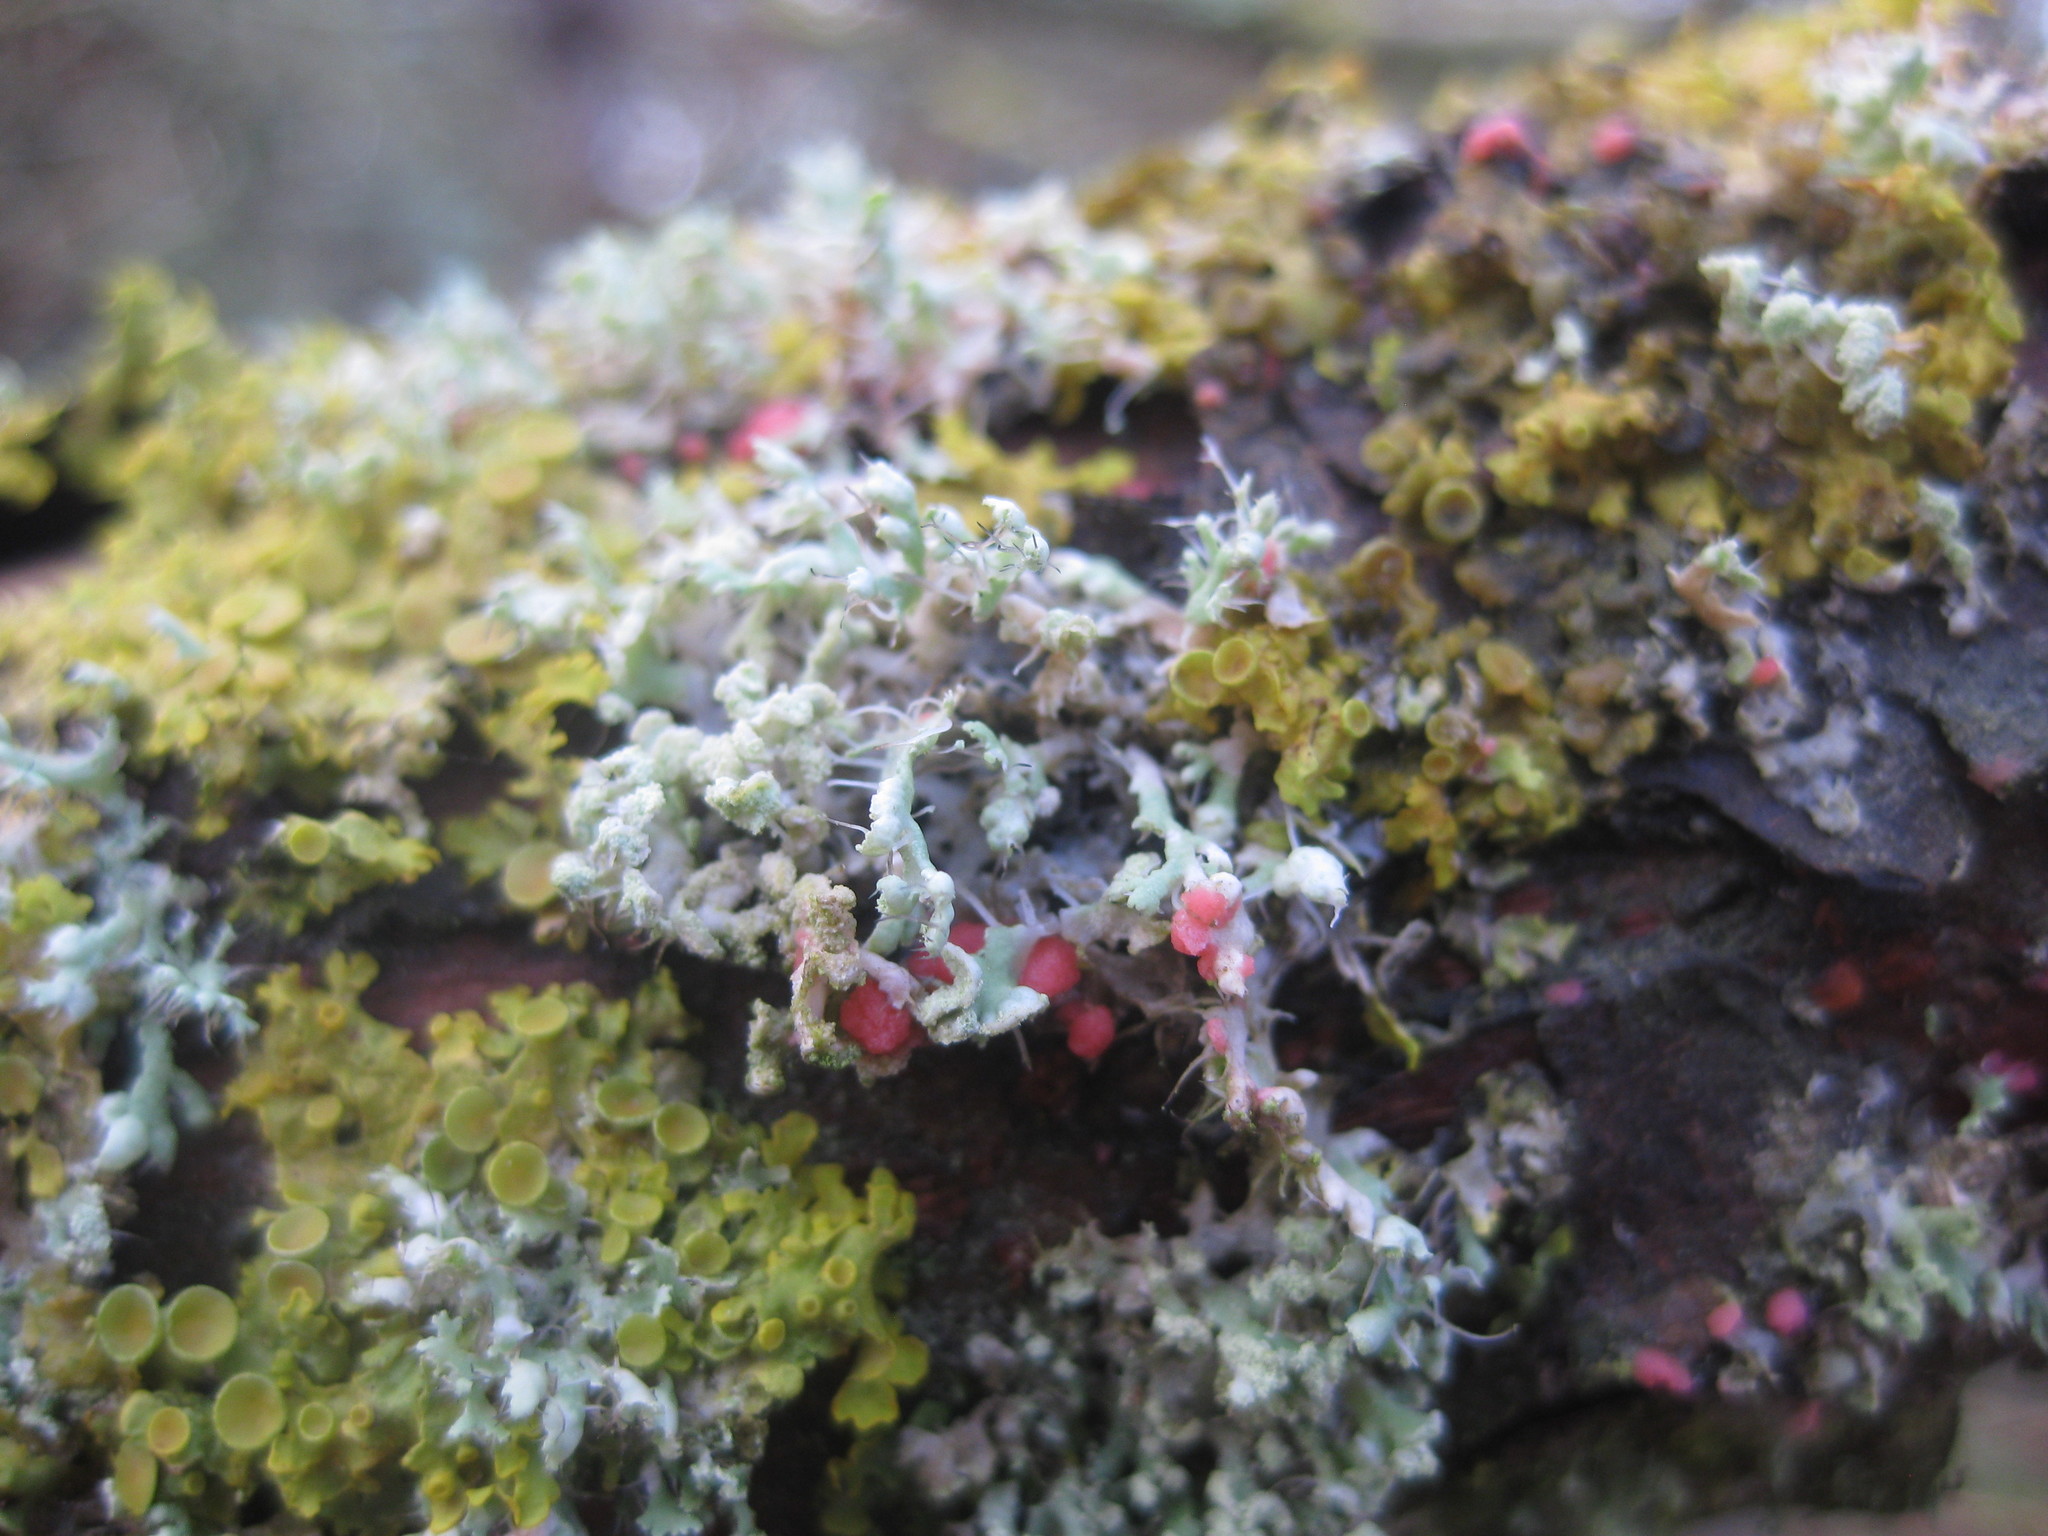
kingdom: Fungi
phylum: Ascomycota
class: Sordariomycetes
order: Hypocreales
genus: Illosporiopsis
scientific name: Illosporiopsis christiansenii
